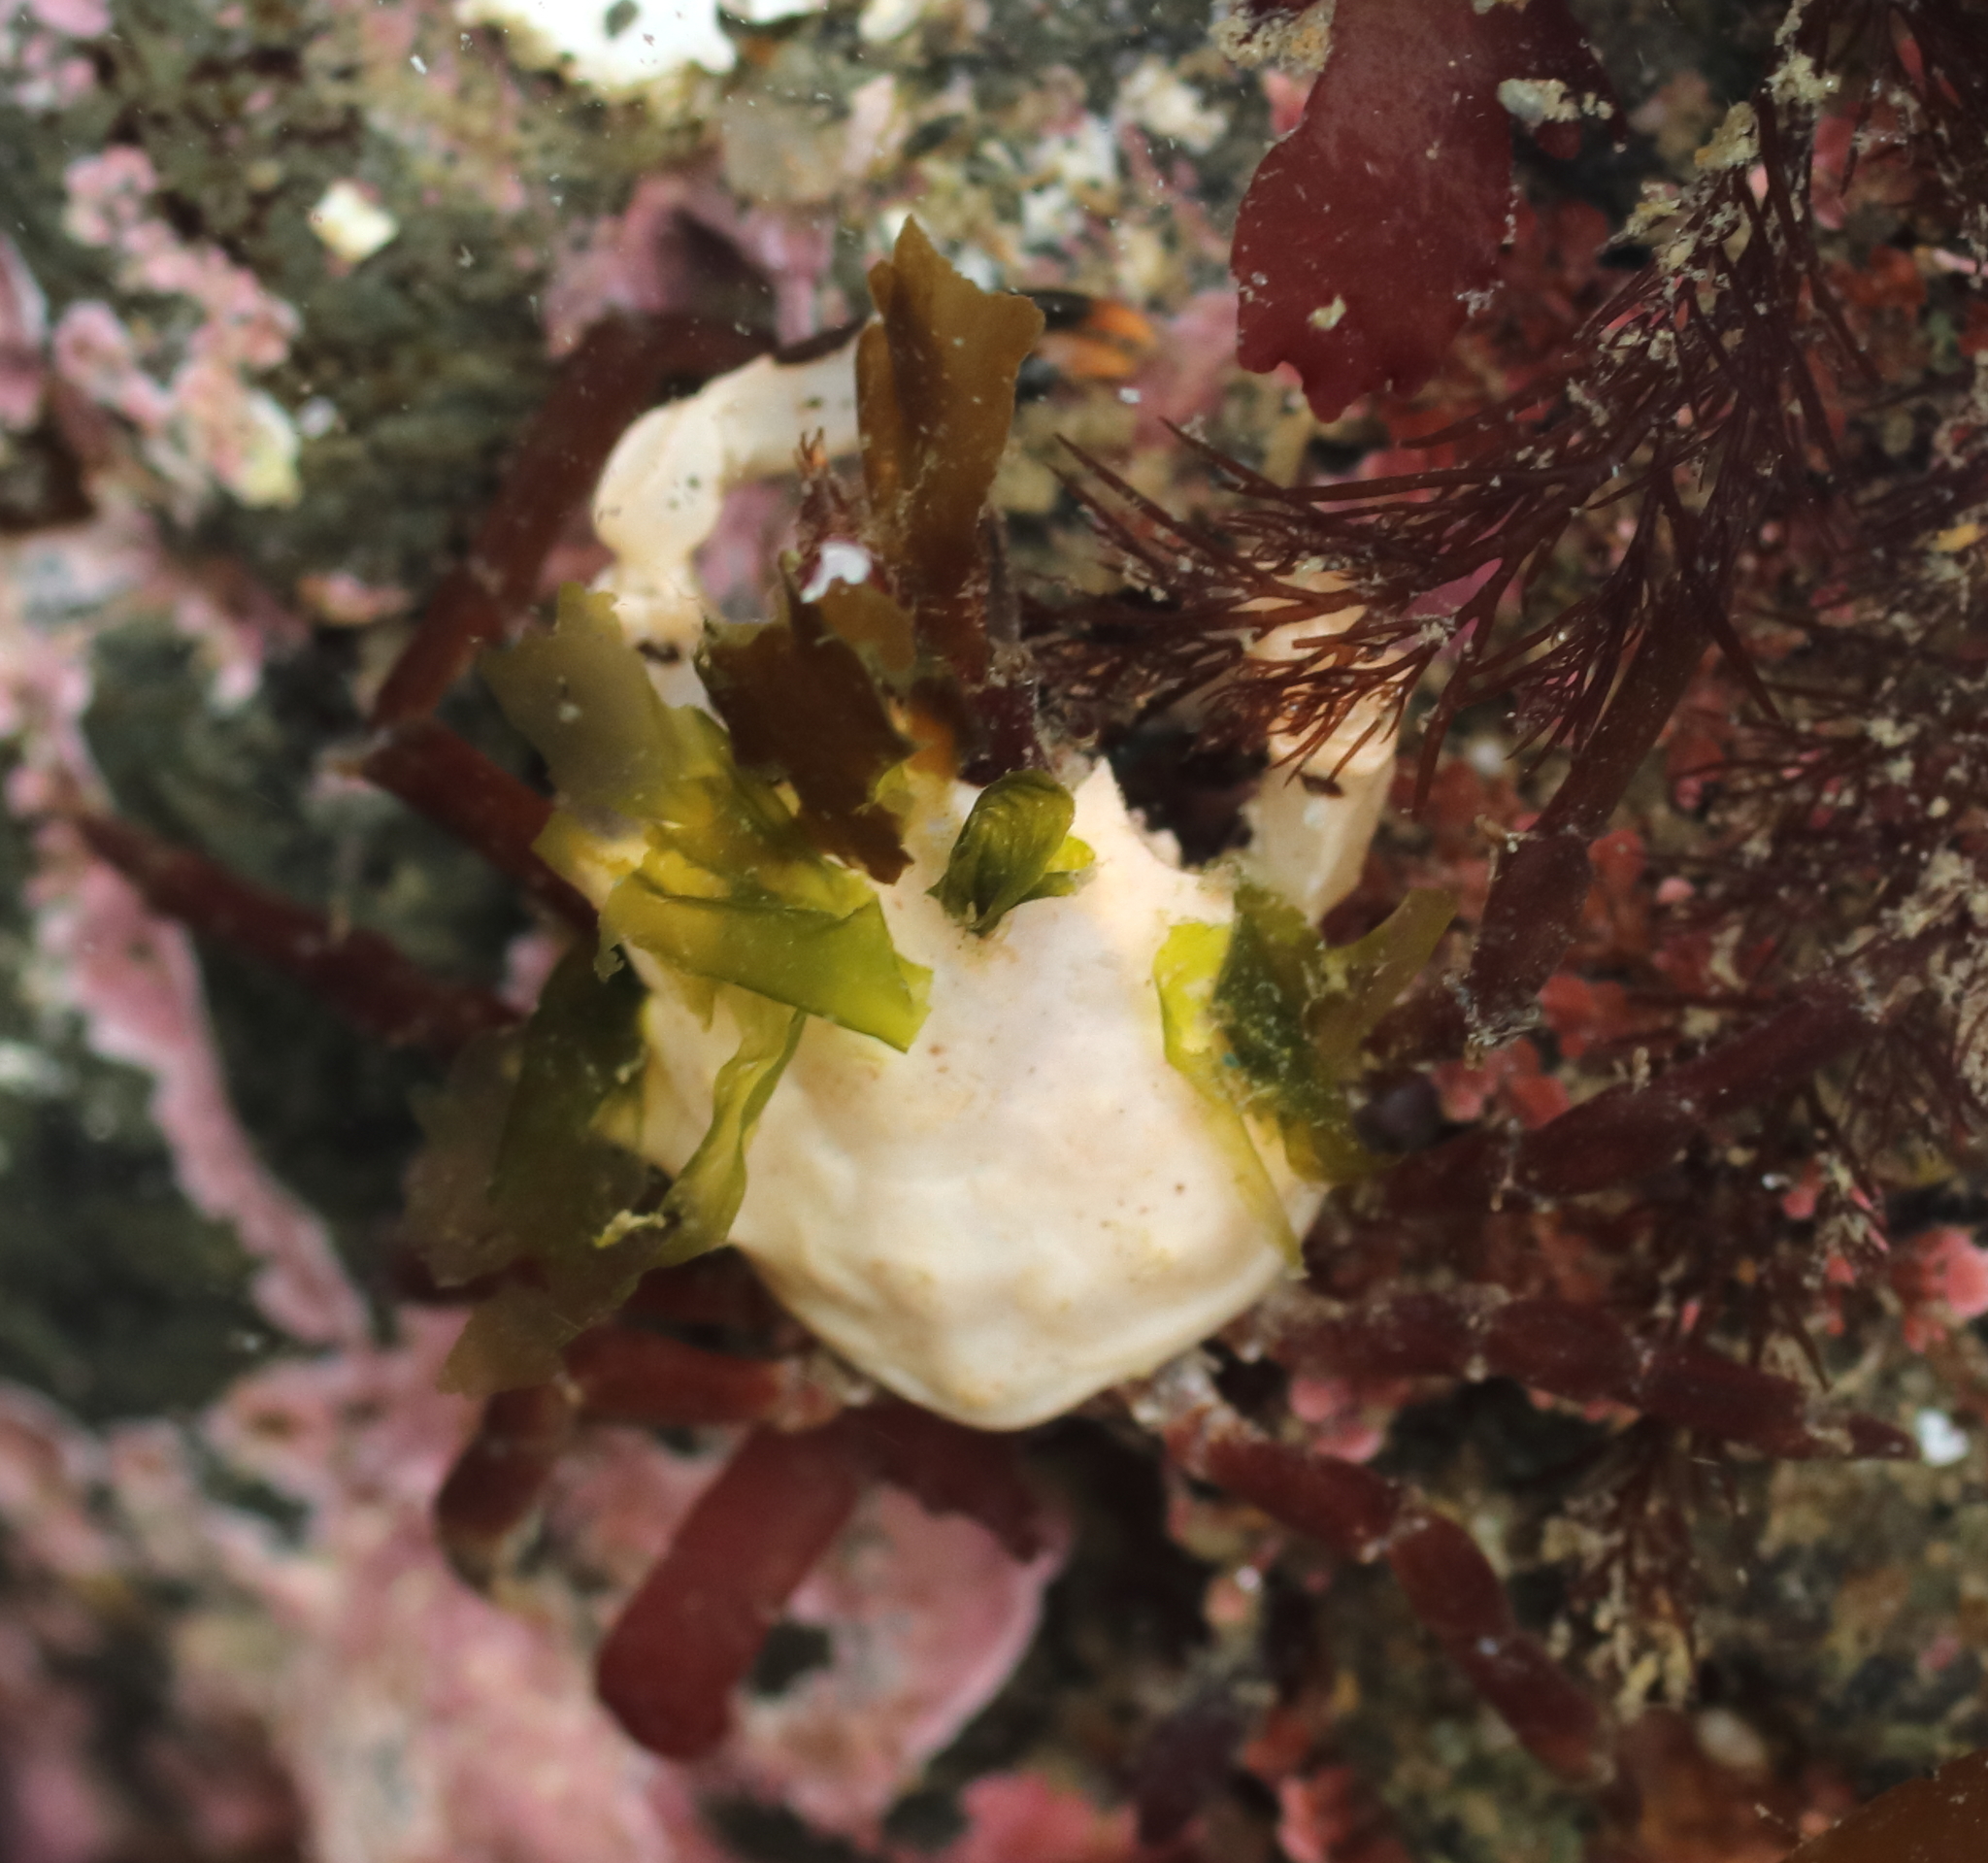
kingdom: Animalia
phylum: Arthropoda
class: Malacostraca
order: Decapoda
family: Epialtidae
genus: Pugettia
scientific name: Pugettia gracilis
